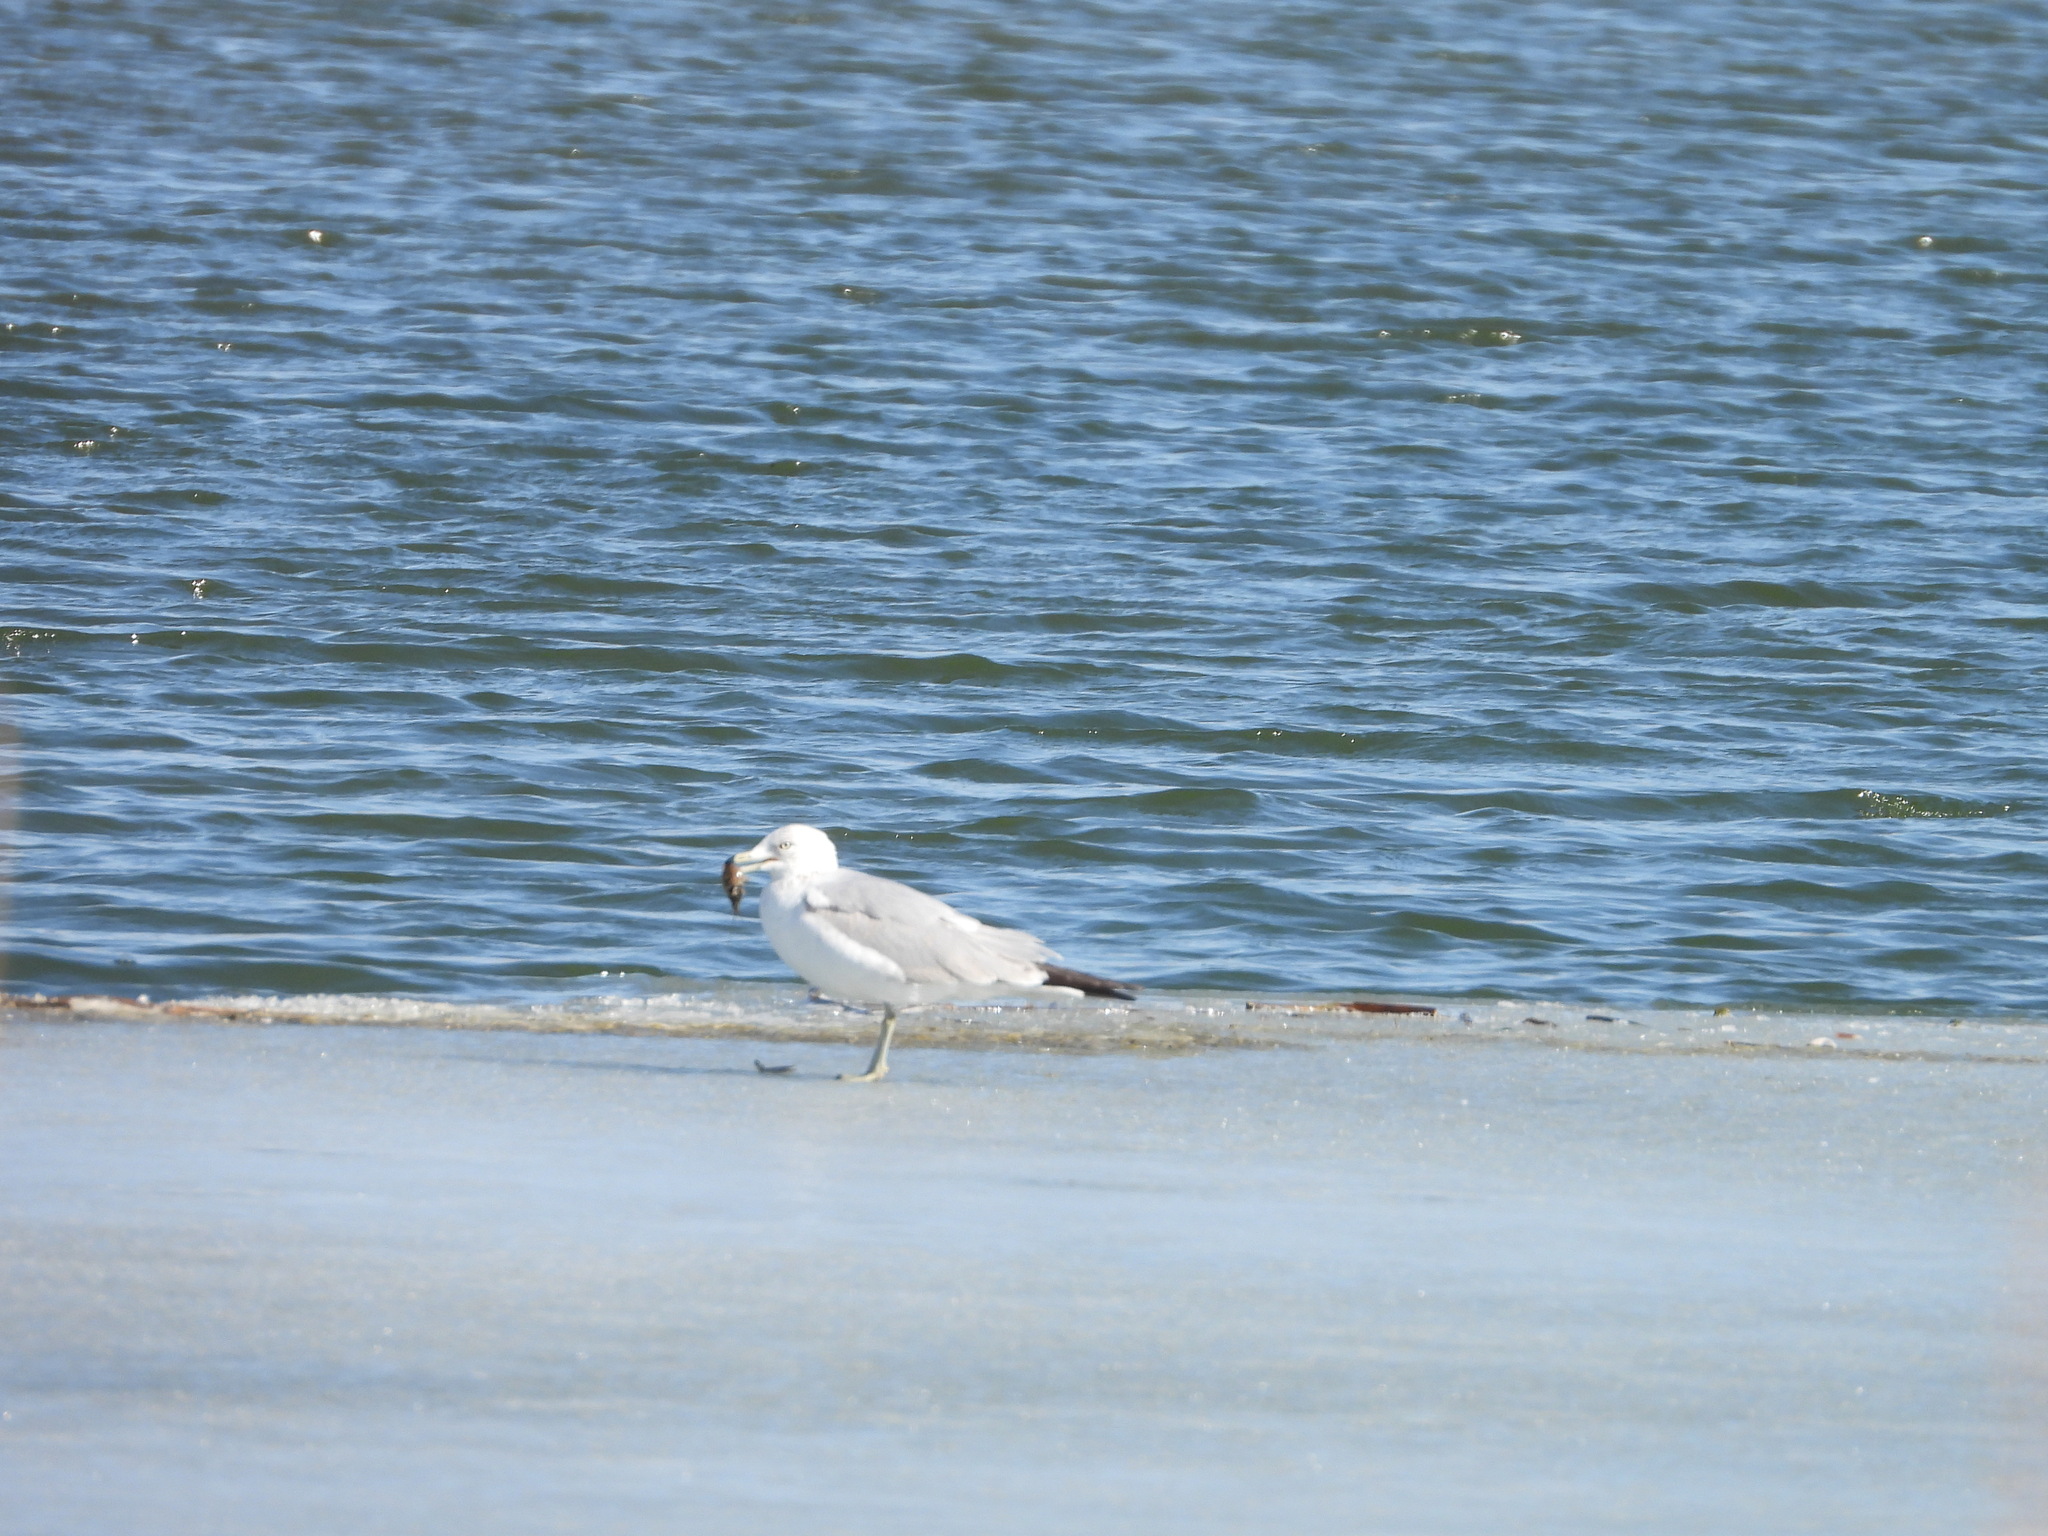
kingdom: Animalia
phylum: Chordata
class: Aves
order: Charadriiformes
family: Laridae
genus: Larus
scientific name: Larus delawarensis
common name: Ring-billed gull
